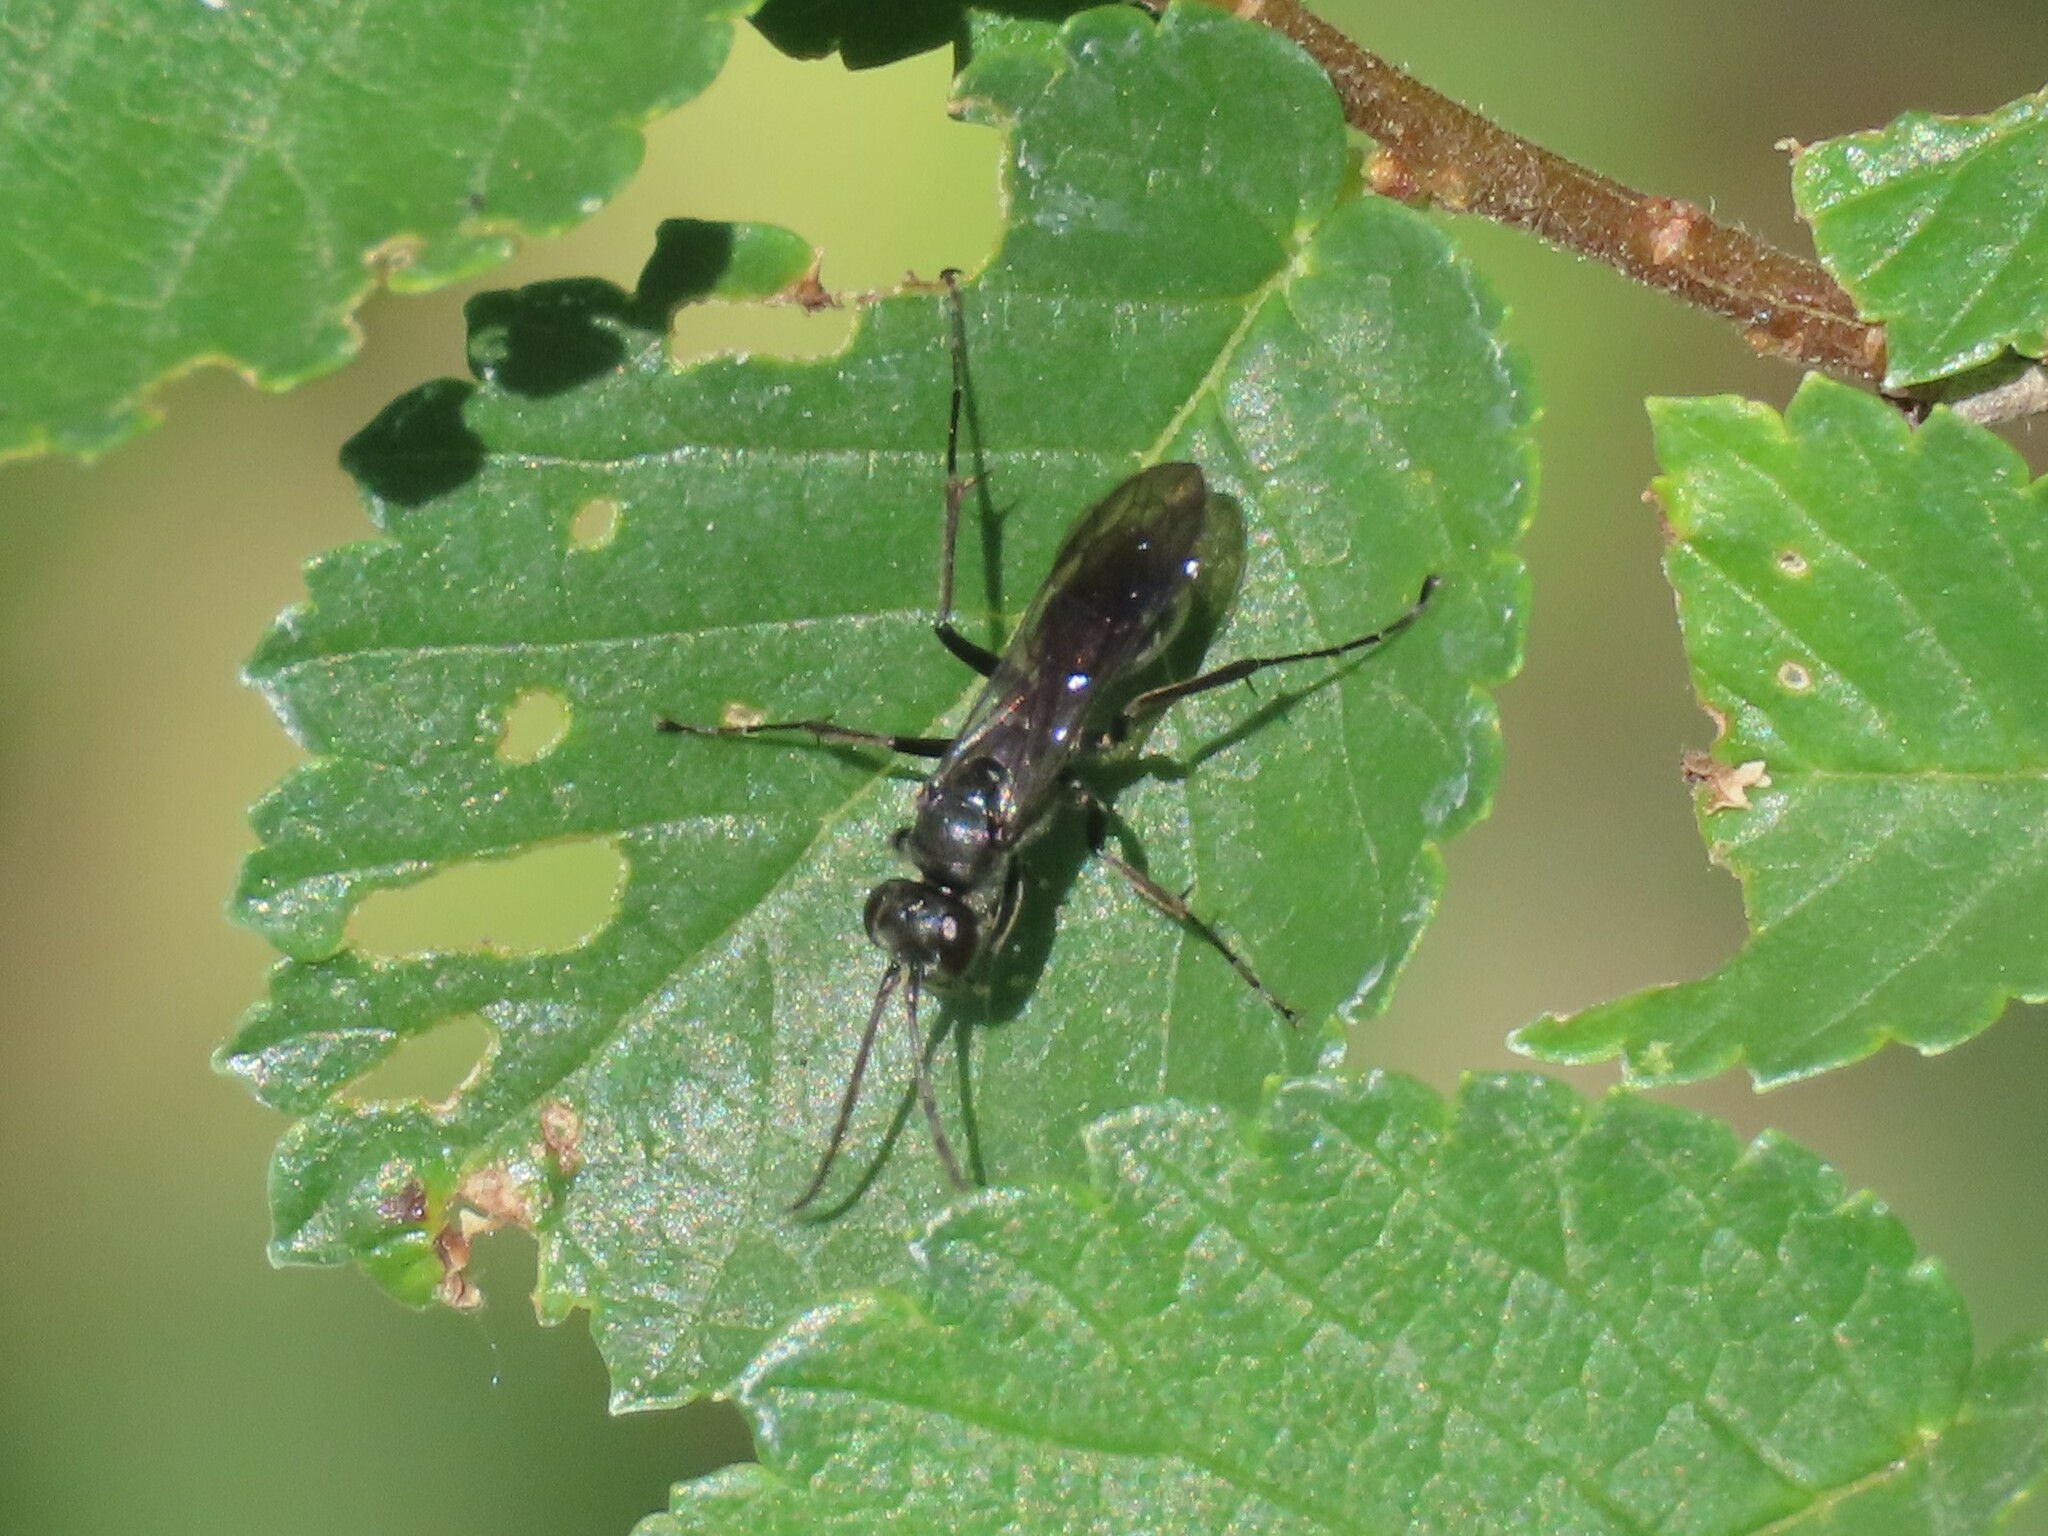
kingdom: Animalia
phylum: Arthropoda
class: Insecta
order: Hymenoptera
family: Pompilidae
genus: Auplopus
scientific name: Auplopus carbonarius
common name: Spider wasp
